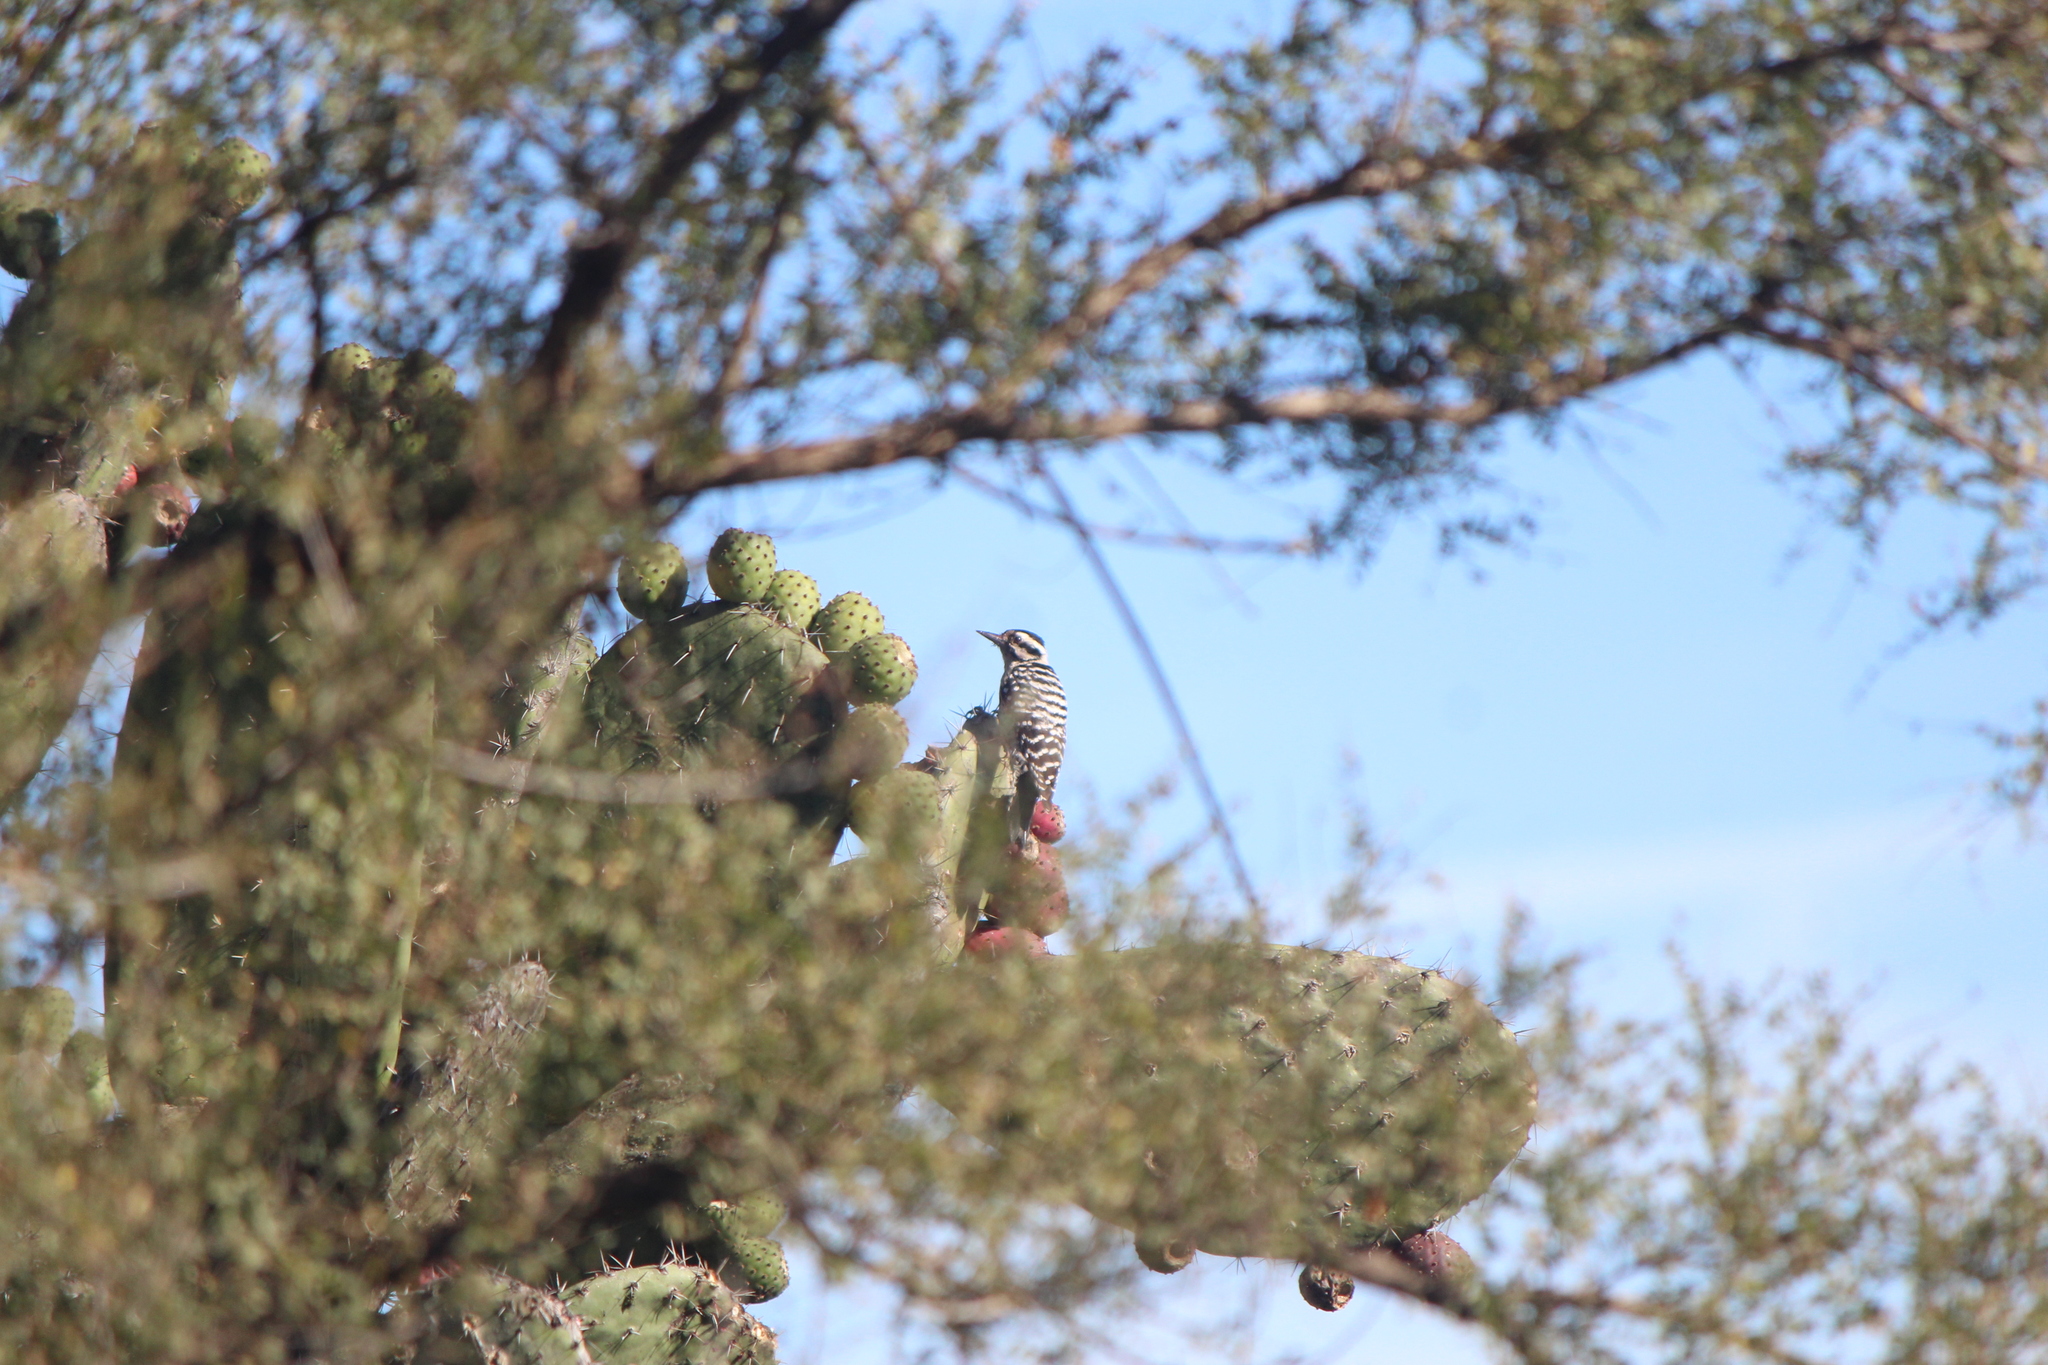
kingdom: Animalia
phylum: Chordata
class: Aves
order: Piciformes
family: Picidae
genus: Dryobates
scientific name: Dryobates scalaris
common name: Ladder-backed woodpecker
